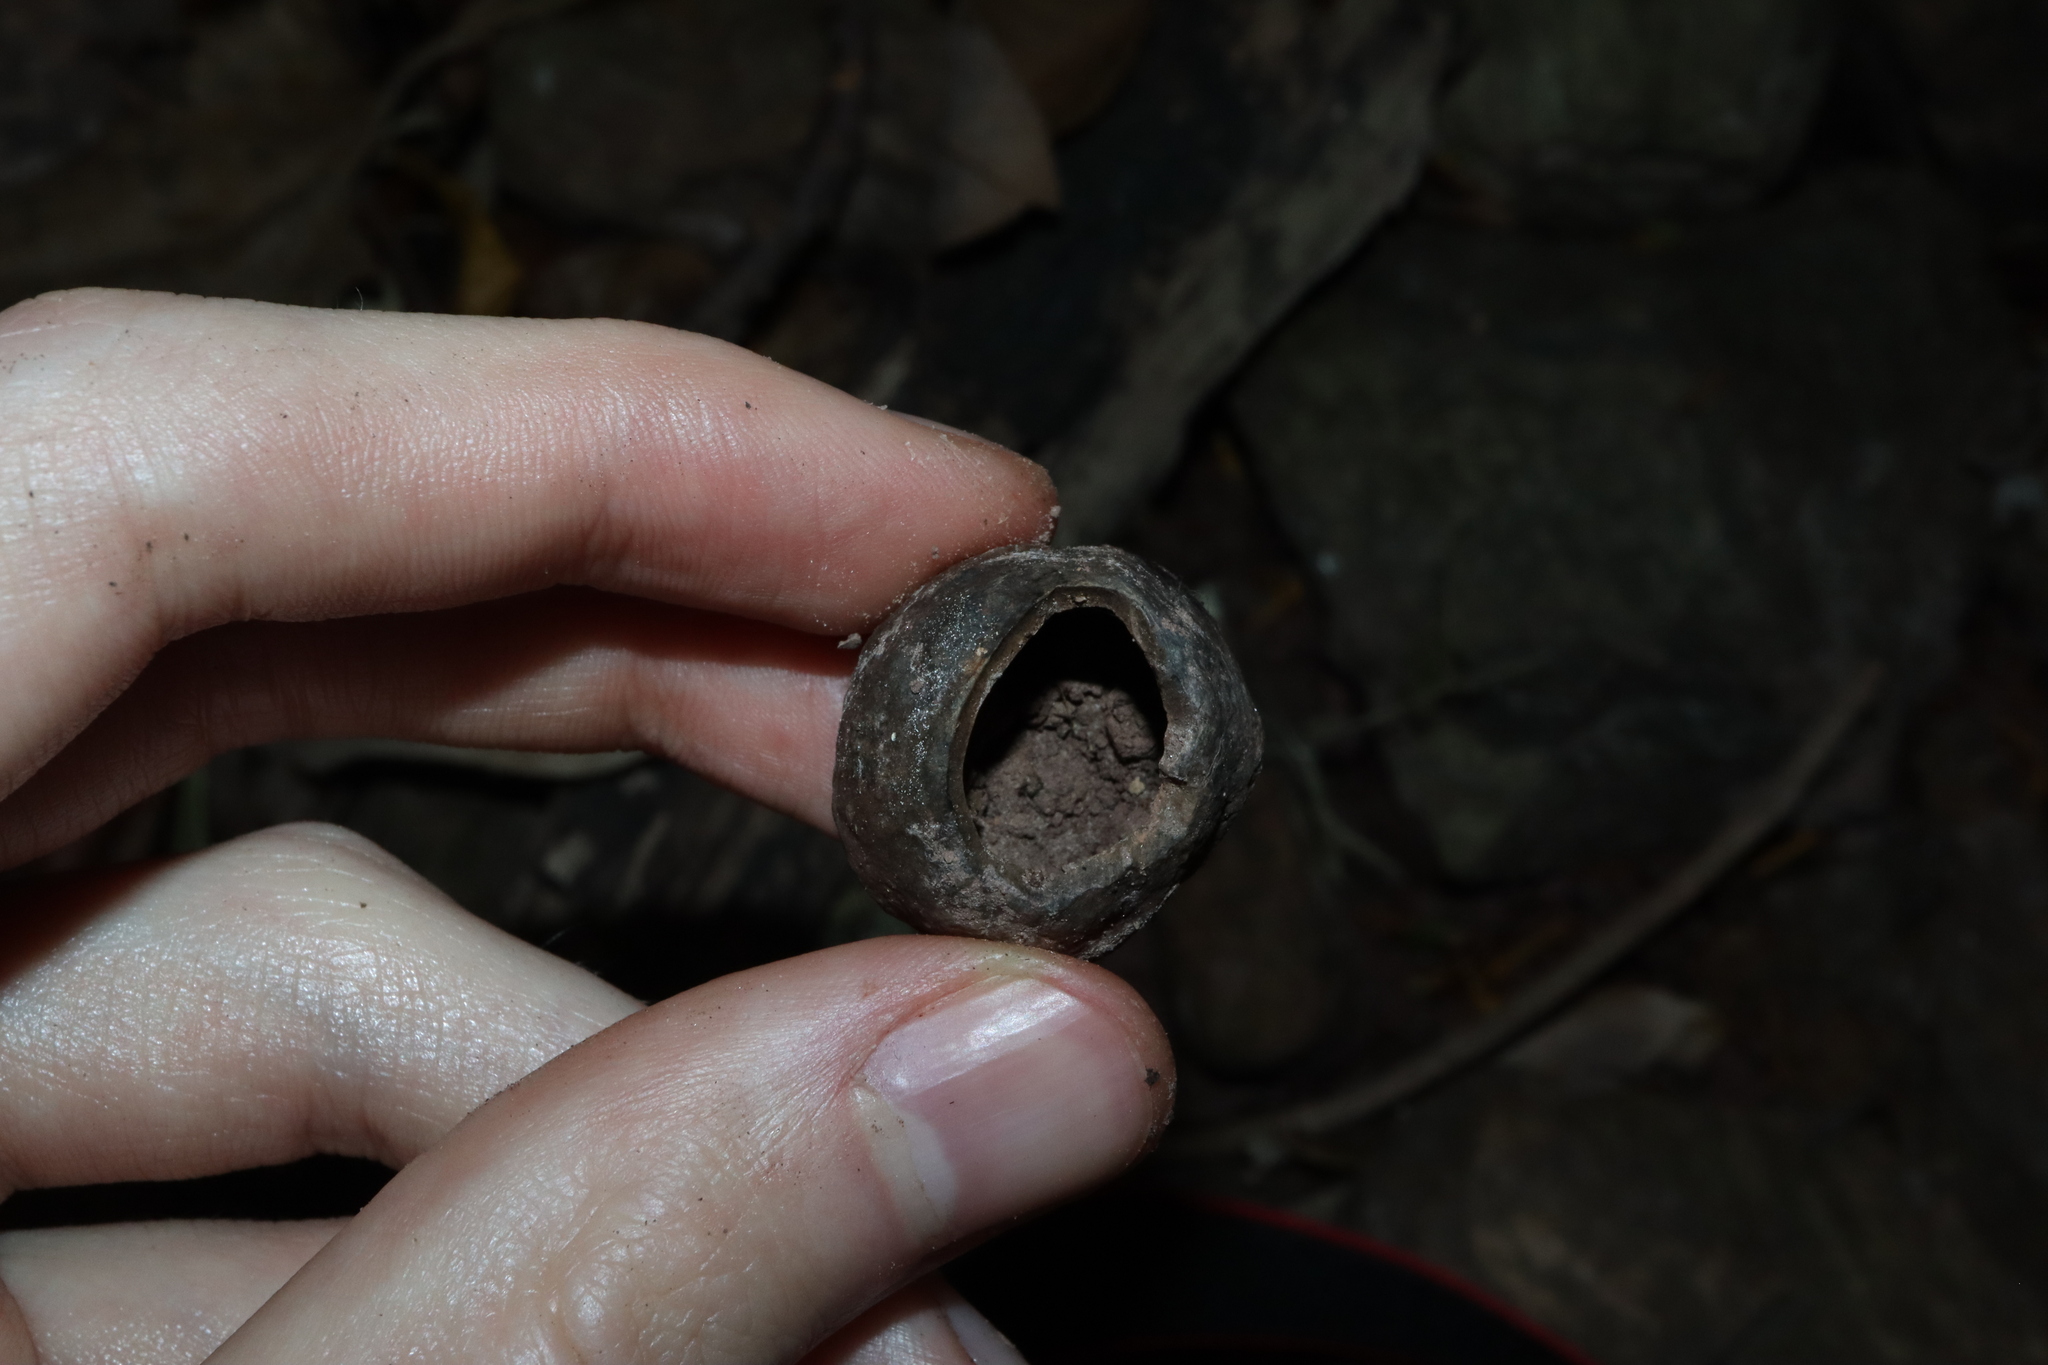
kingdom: Plantae
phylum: Tracheophyta
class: Magnoliopsida
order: Malpighiales
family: Euphorbiaceae
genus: Aleurites
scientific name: Aleurites rockinghamensis
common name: Candelnut
